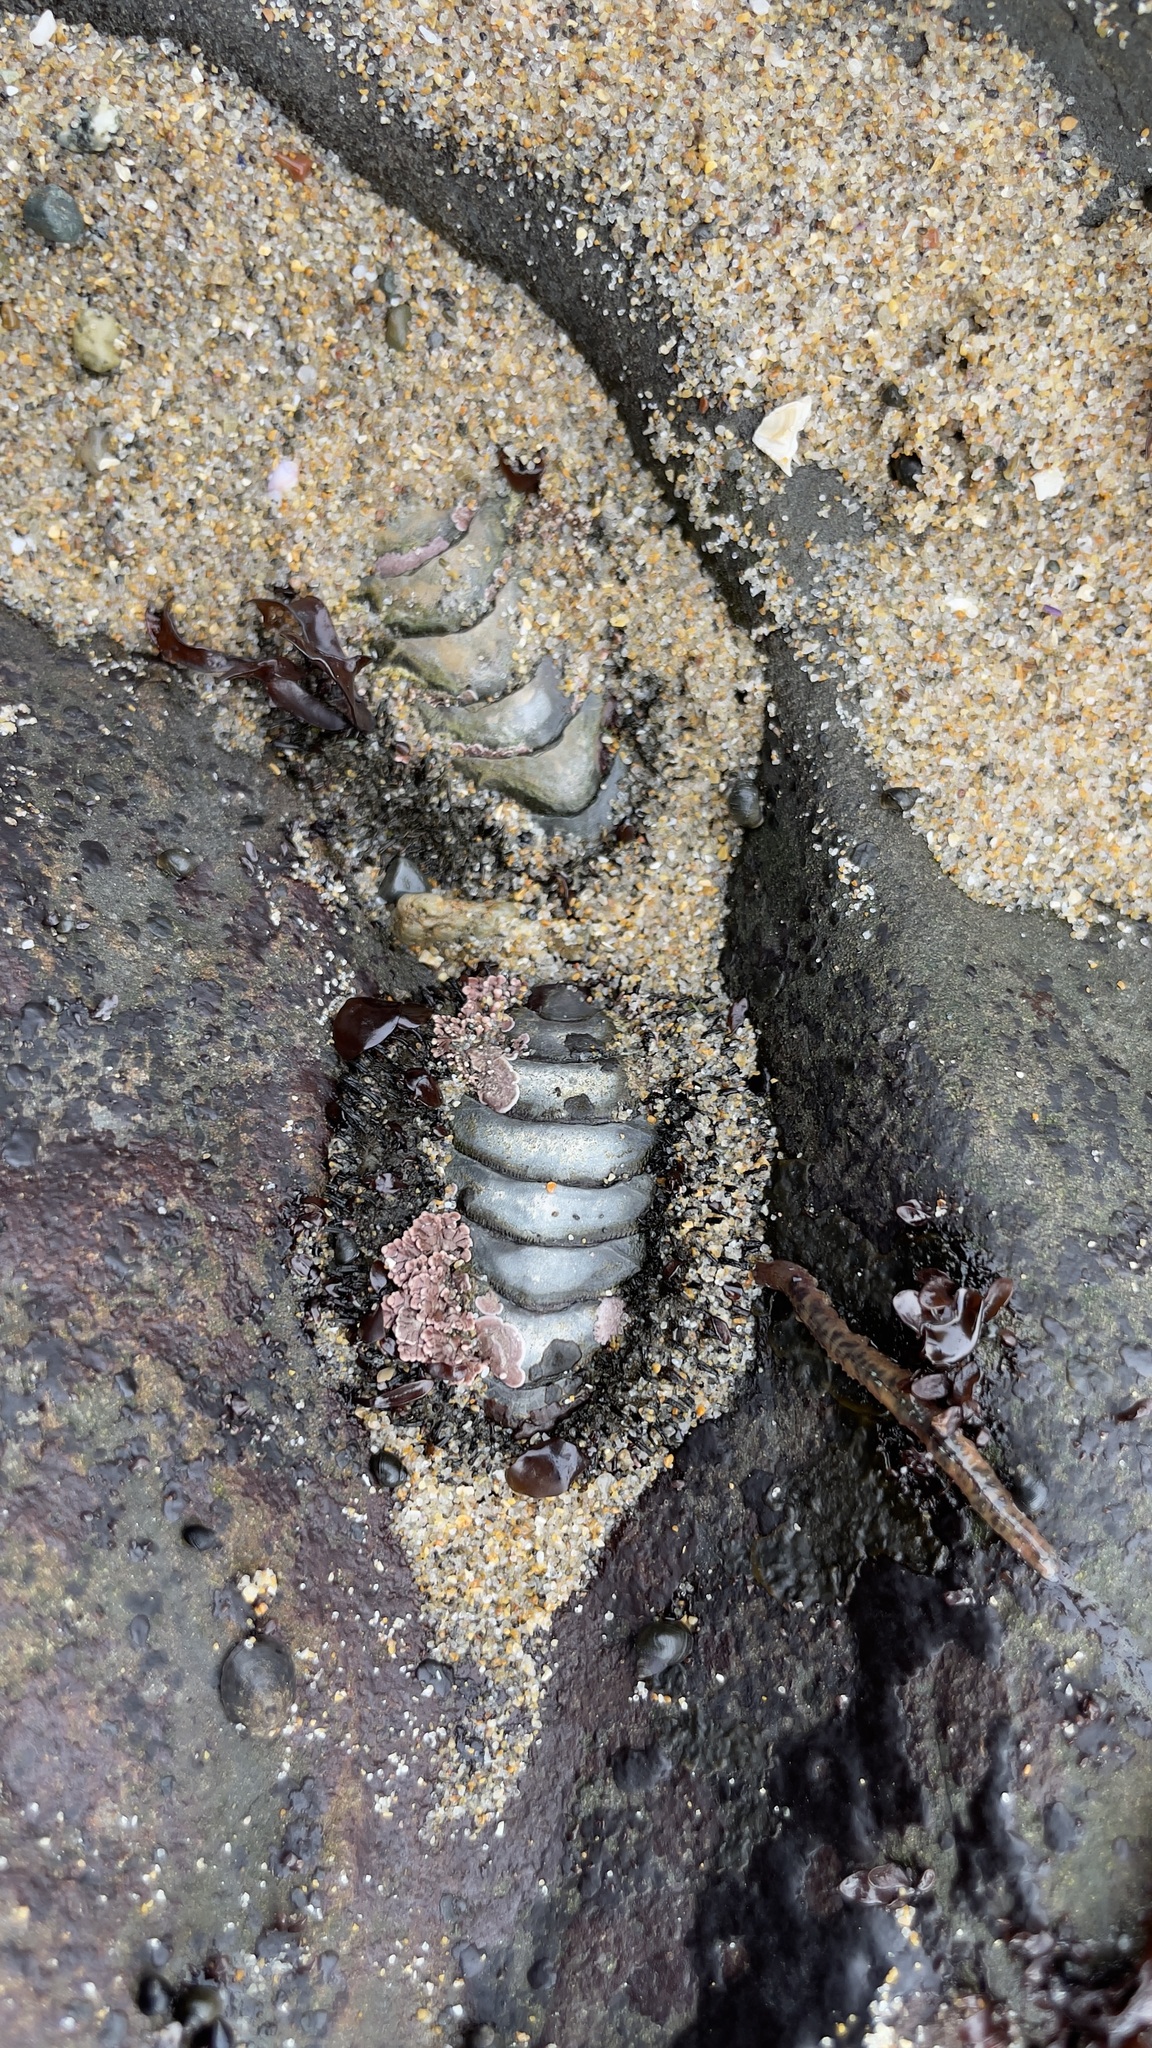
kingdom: Animalia
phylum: Mollusca
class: Polyplacophora
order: Chitonida
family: Mopaliidae
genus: Mopalia
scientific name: Mopalia muscosa
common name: Mossy chiton
